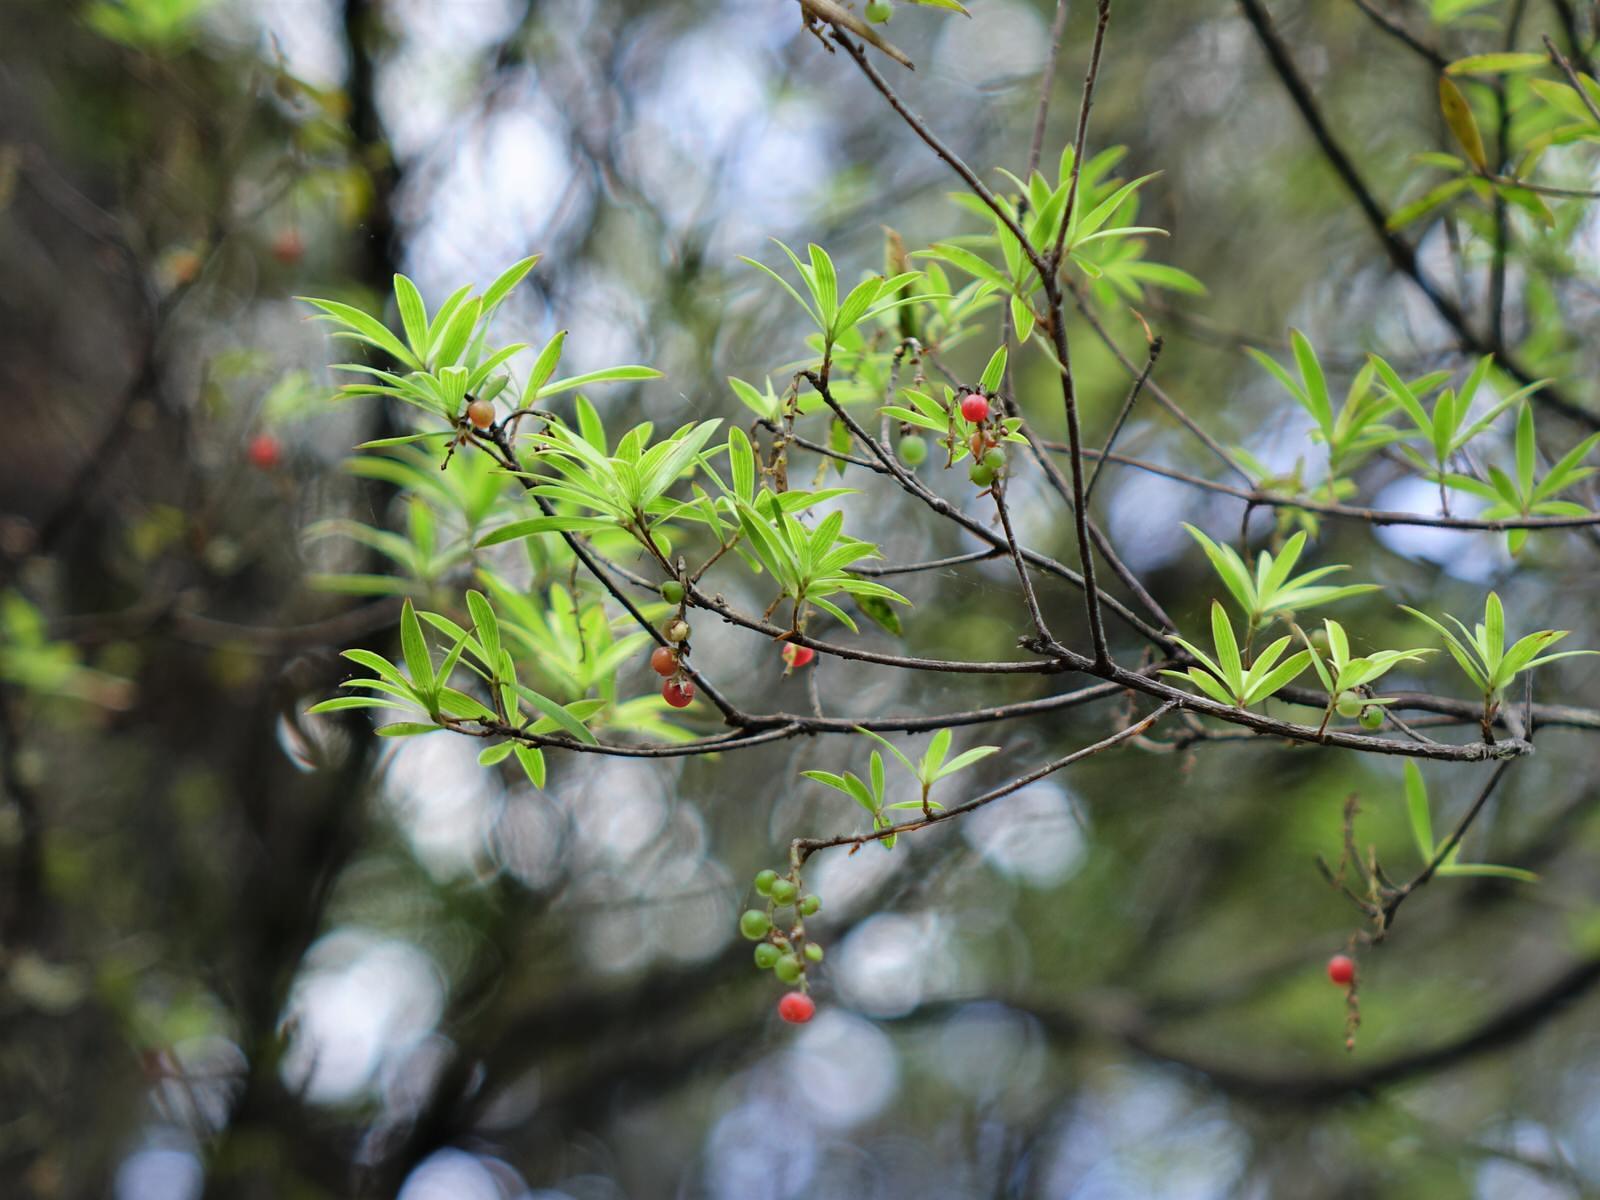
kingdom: Plantae
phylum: Tracheophyta
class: Magnoliopsida
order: Ericales
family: Ericaceae
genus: Leucopogon
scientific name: Leucopogon fasciculatus
